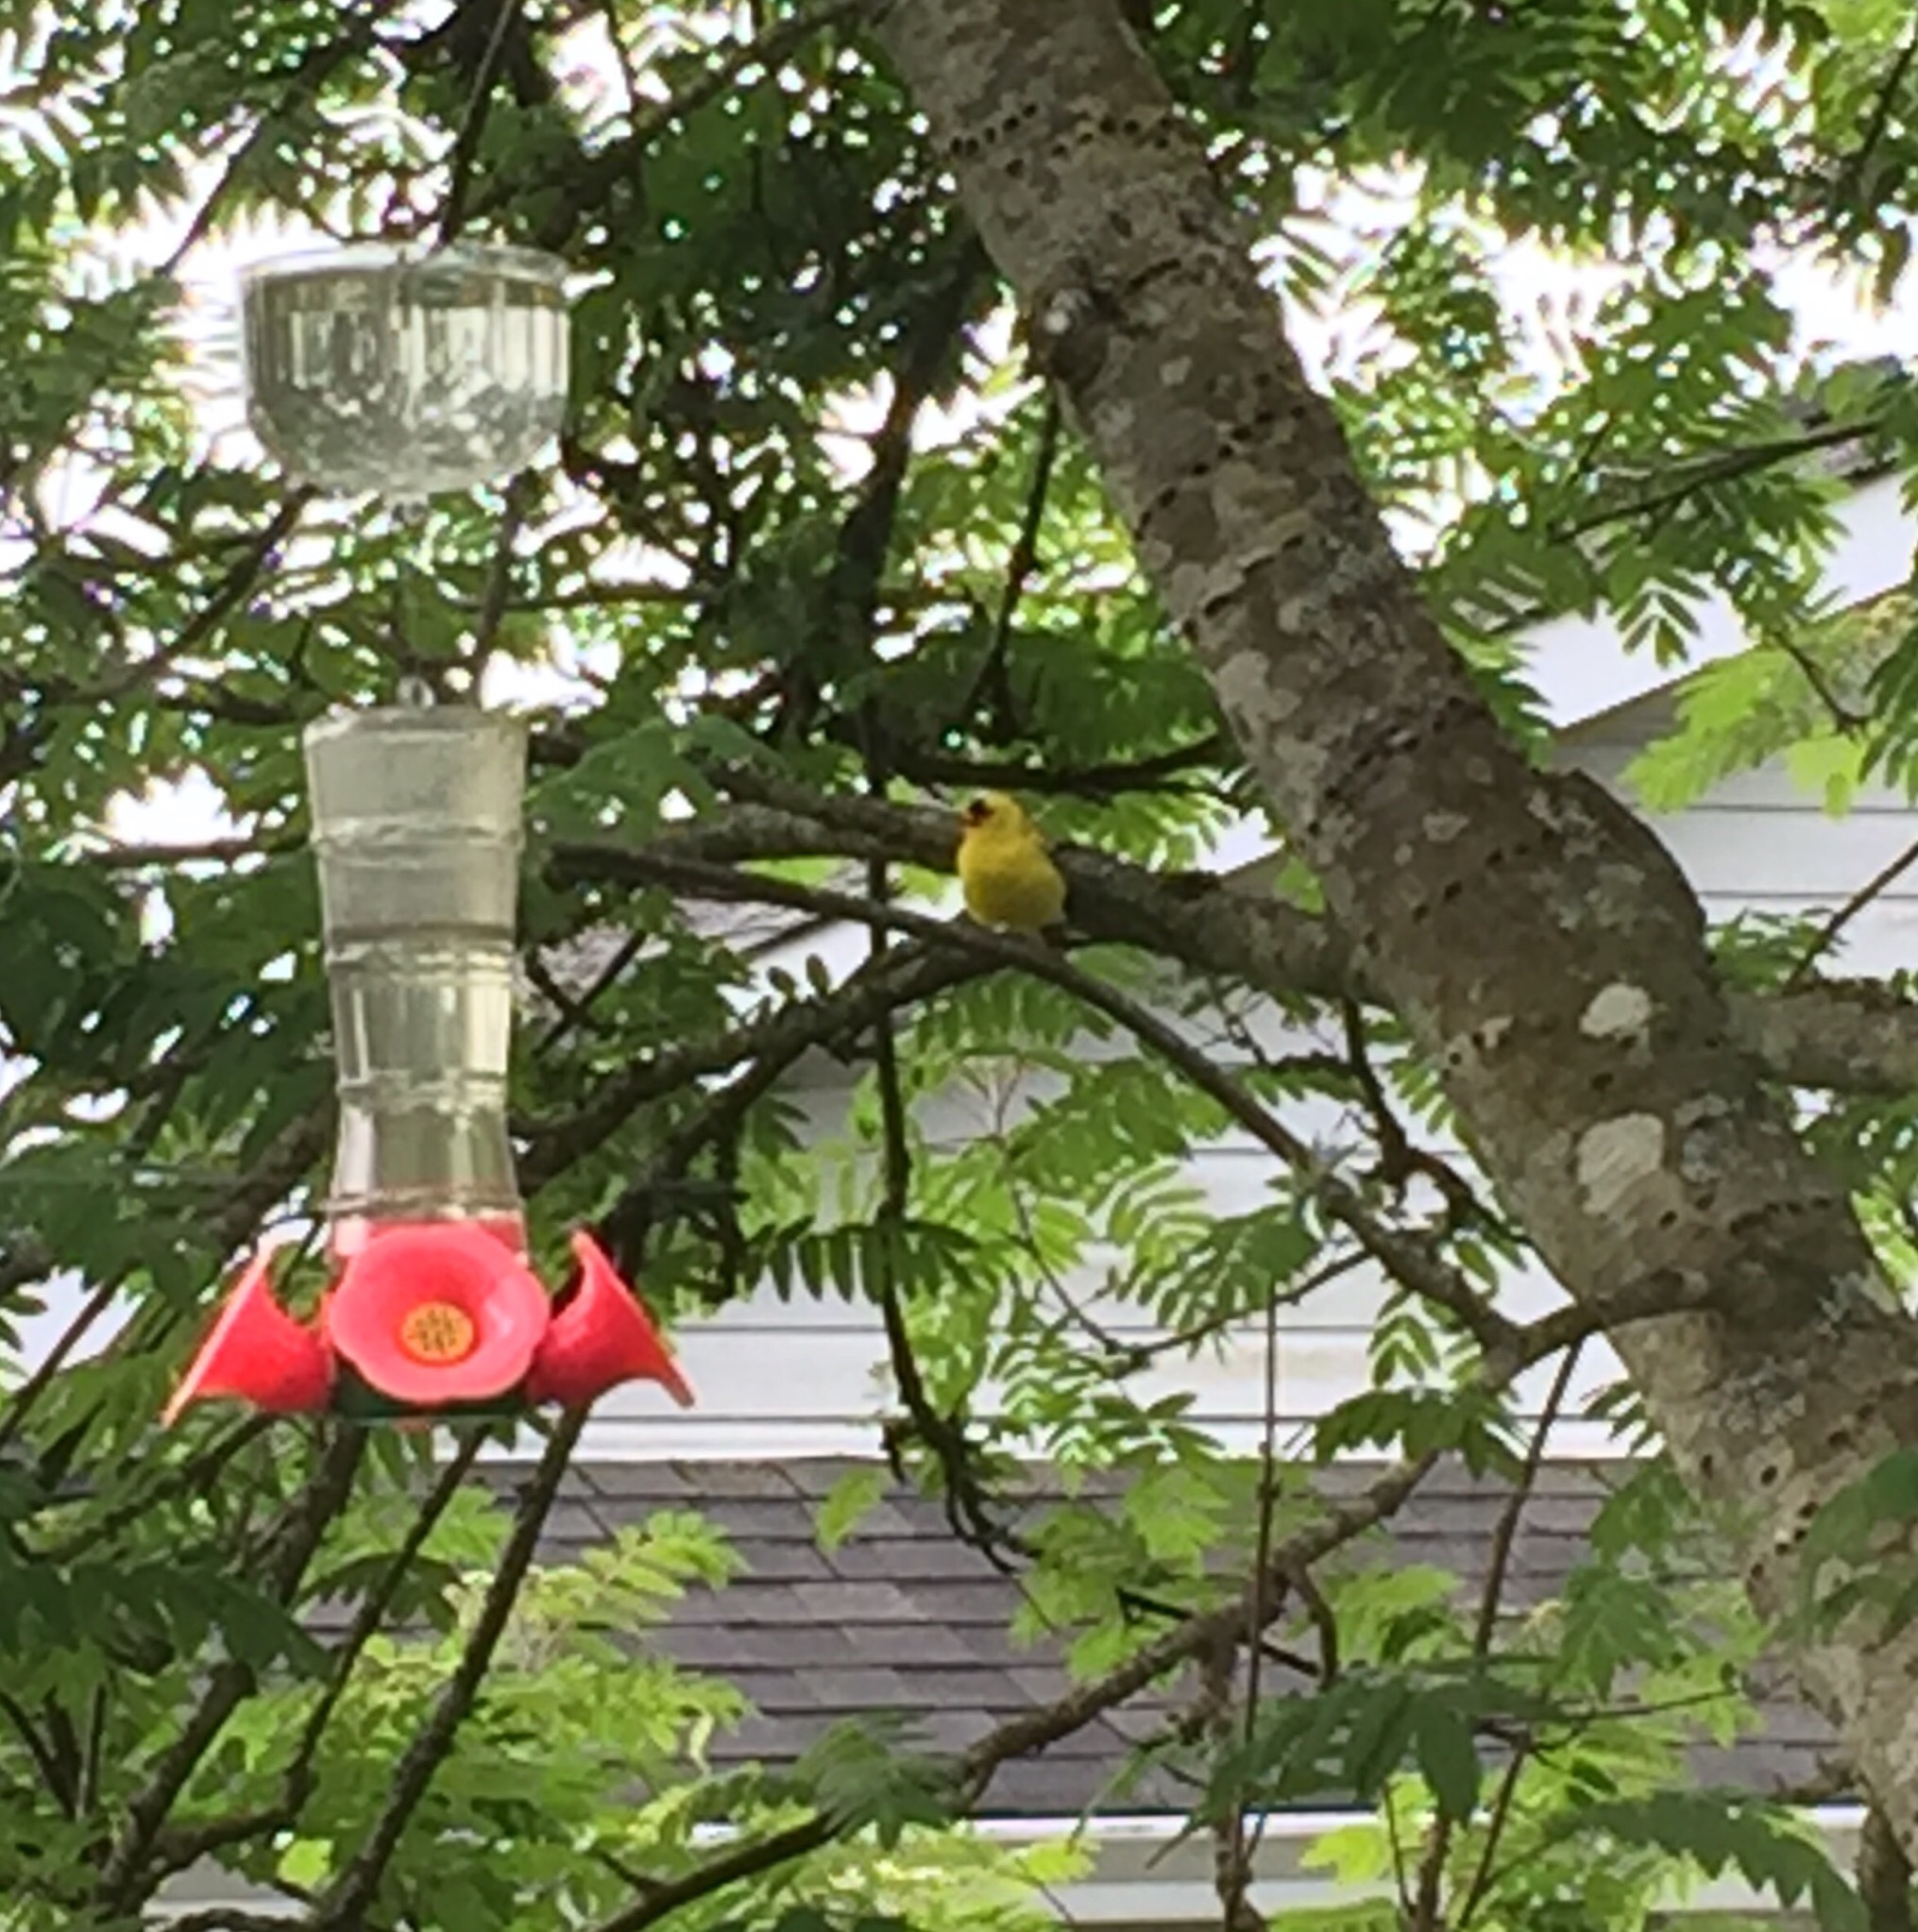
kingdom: Animalia
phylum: Chordata
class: Aves
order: Passeriformes
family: Fringillidae
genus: Spinus
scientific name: Spinus tristis
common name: American goldfinch
